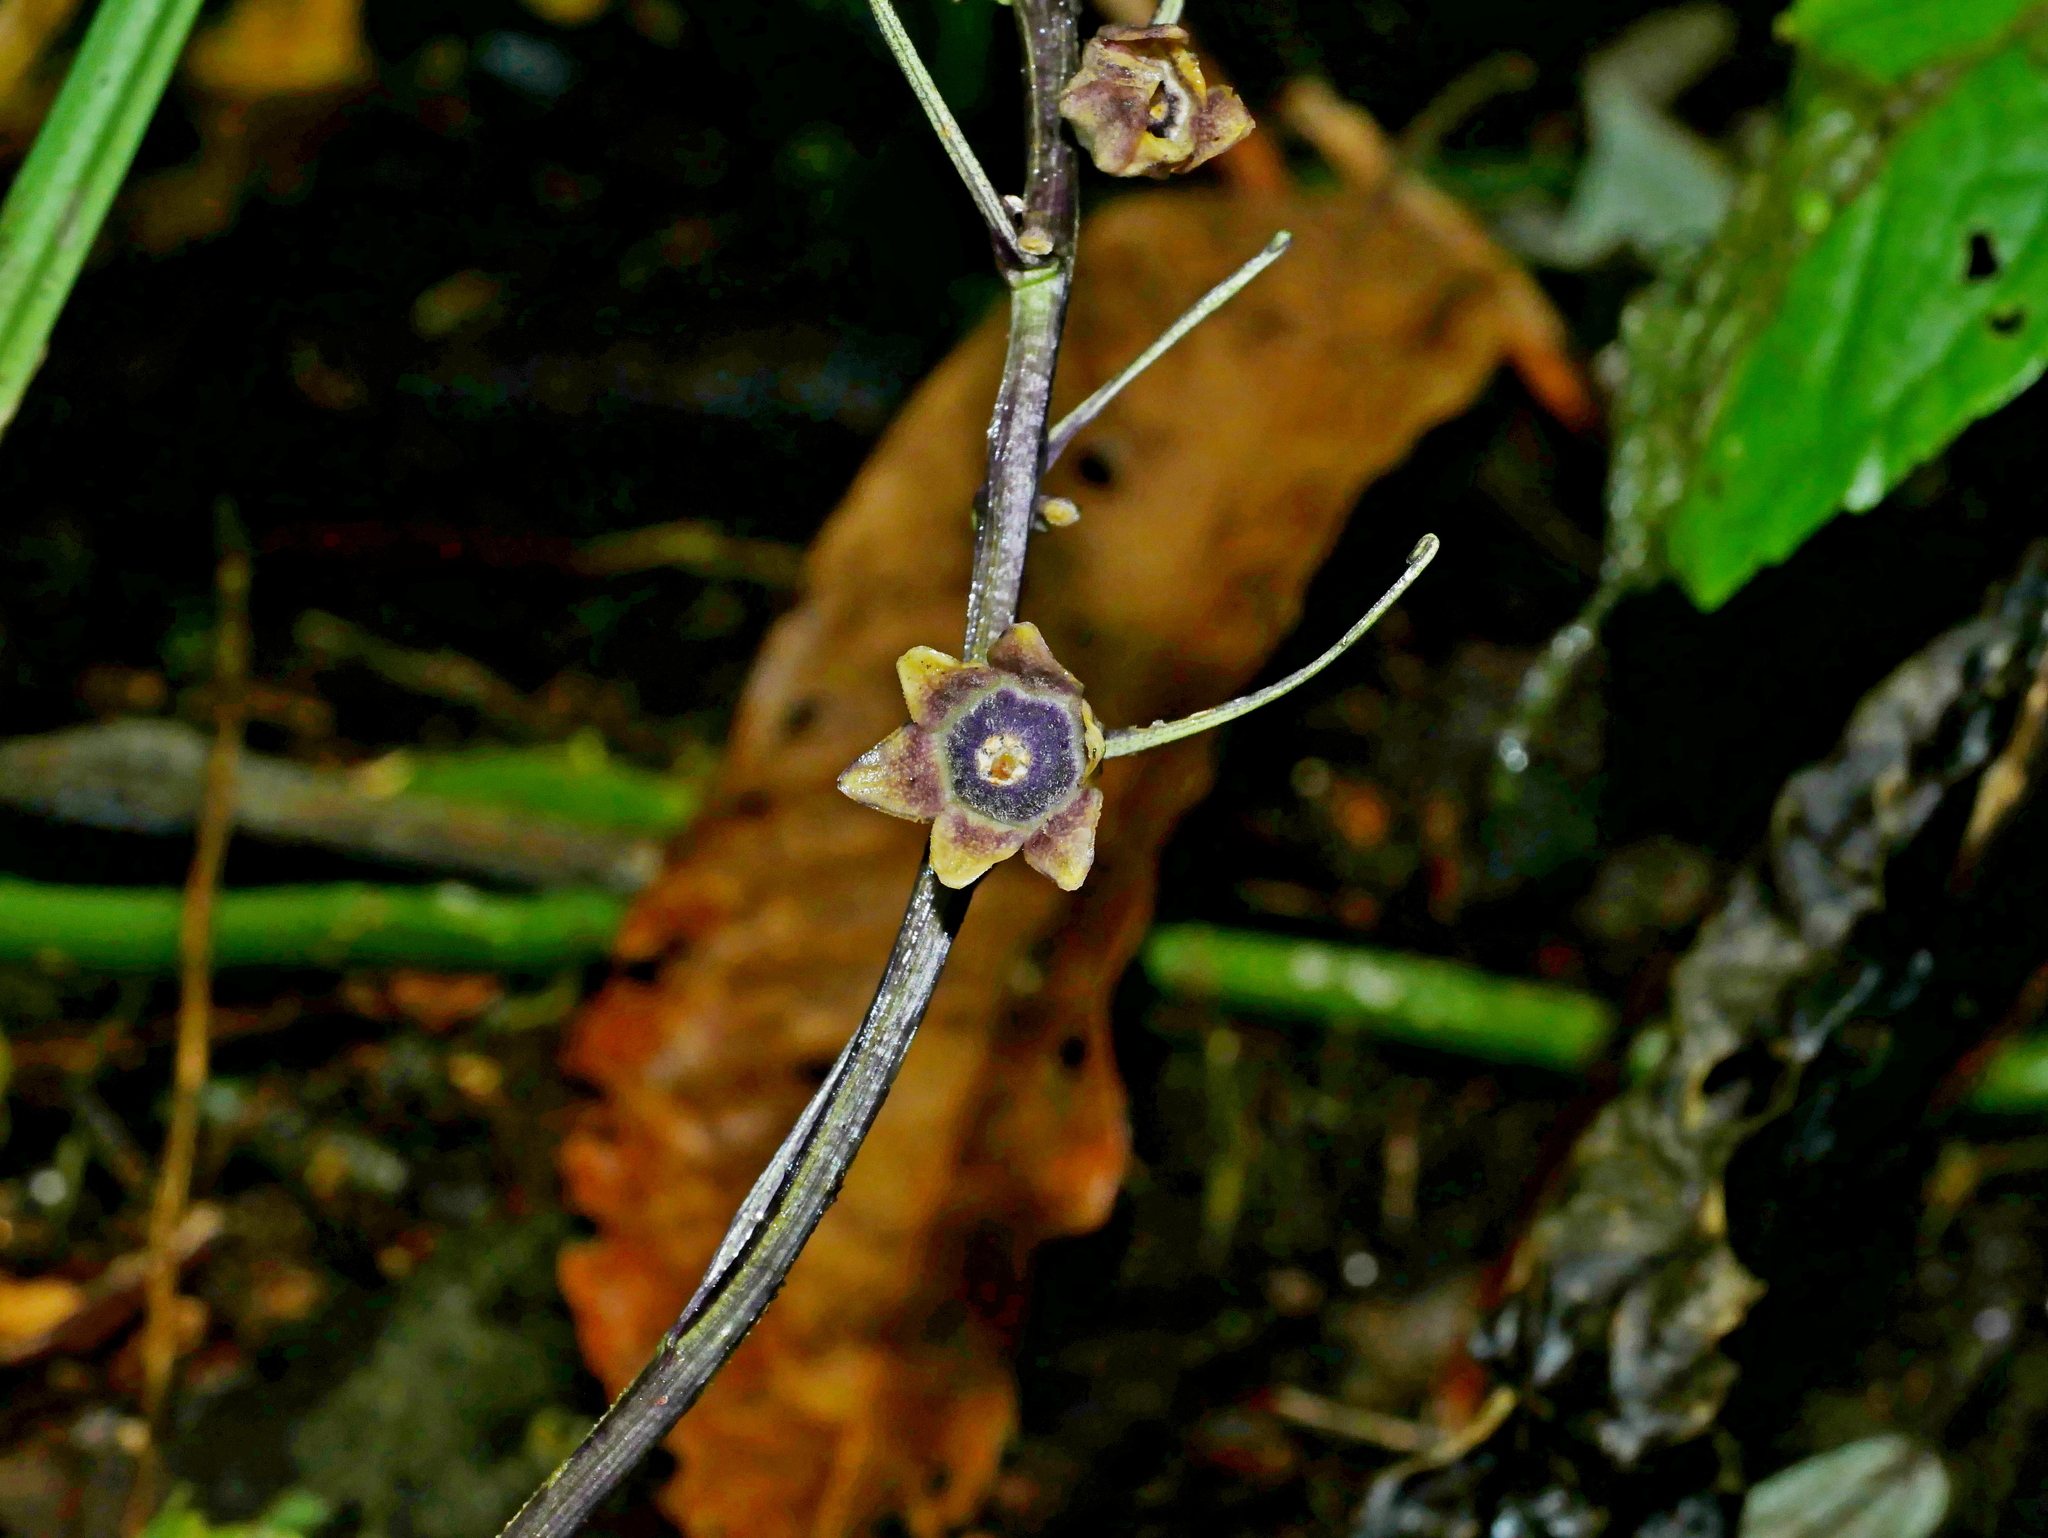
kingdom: Plantae
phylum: Tracheophyta
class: Liliopsida
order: Asparagales
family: Asparagaceae
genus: Peliosanthes
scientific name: Peliosanthes macrostegia
